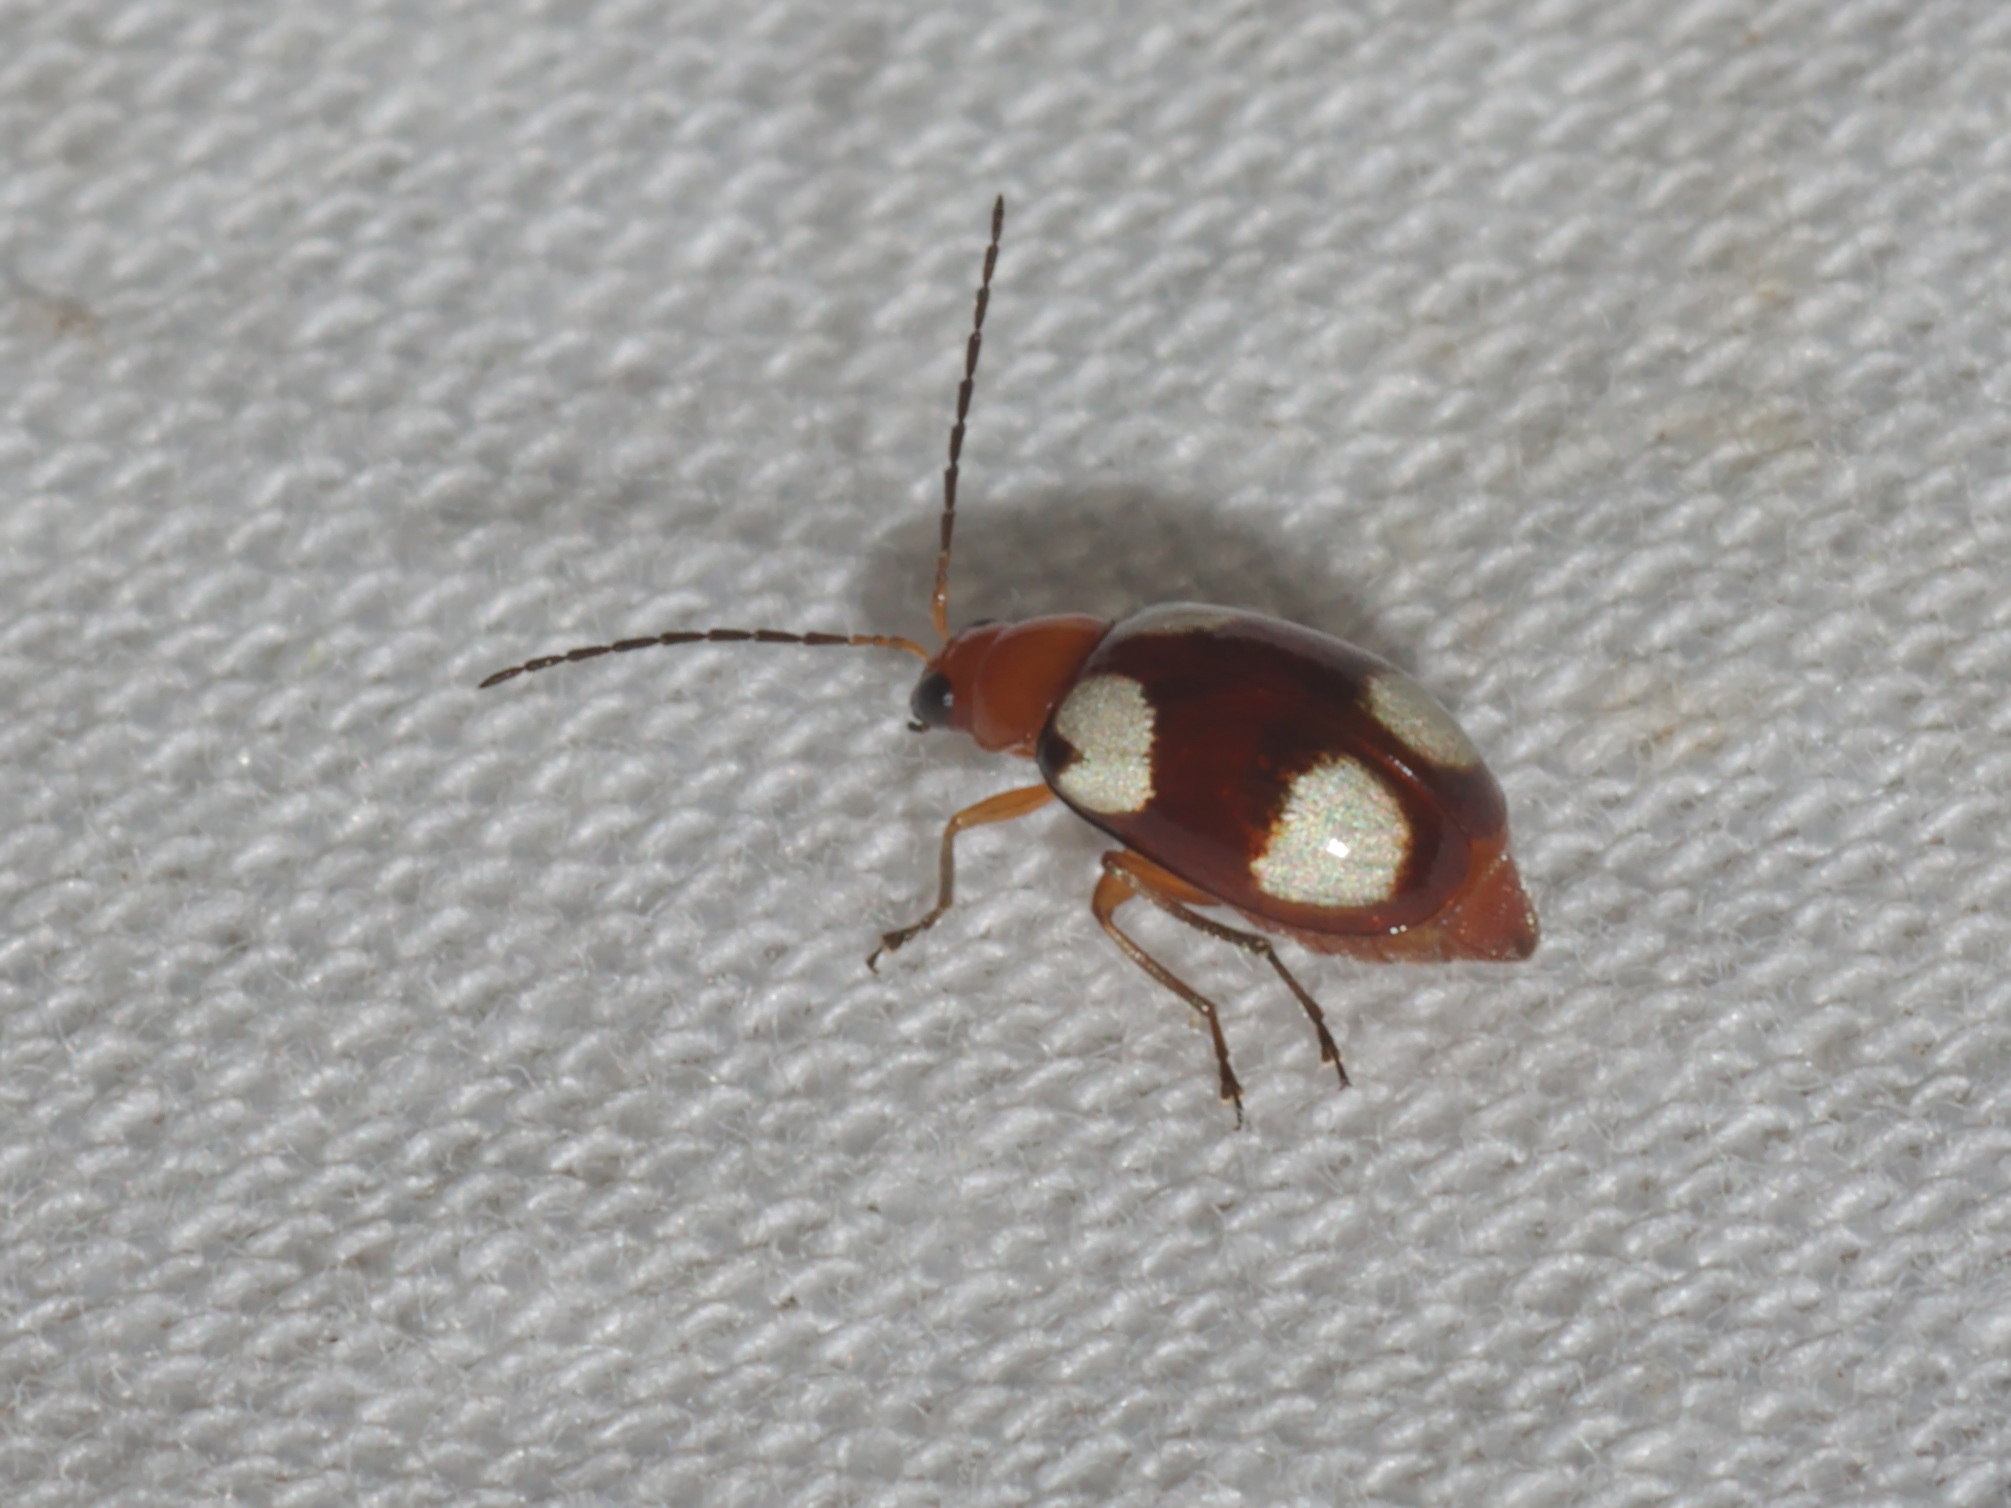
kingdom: Animalia
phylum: Arthropoda
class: Insecta
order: Coleoptera
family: Chrysomelidae
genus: Monolepta
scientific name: Monolepta signata
